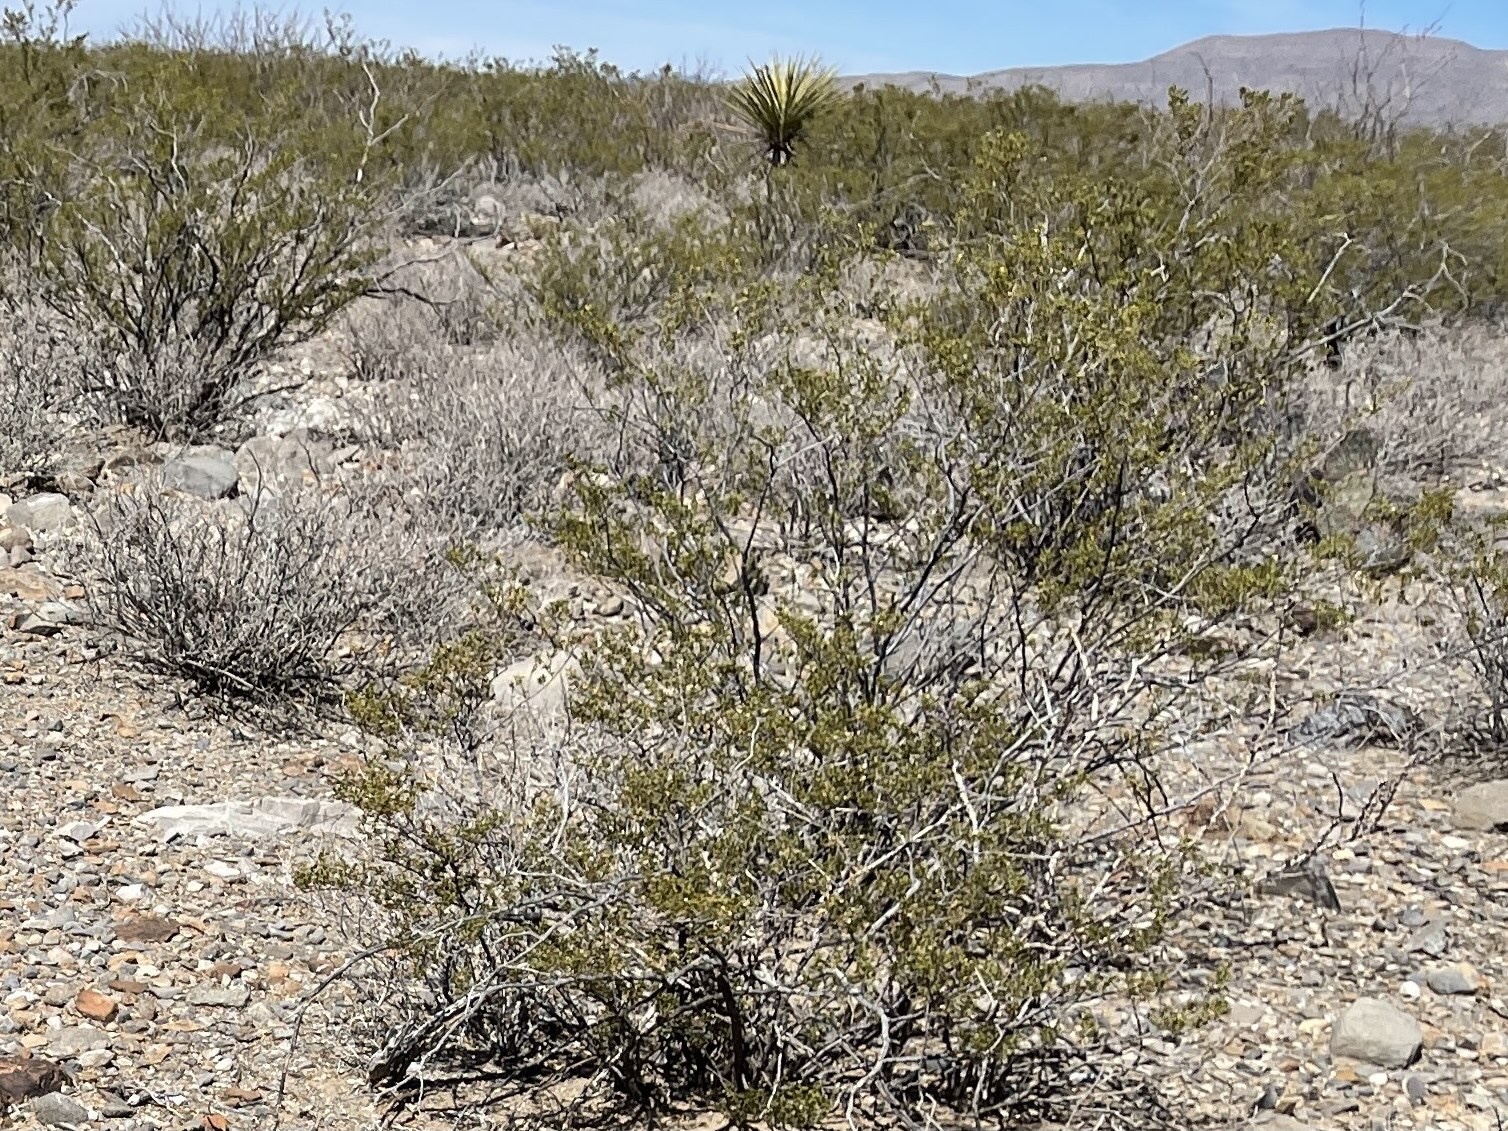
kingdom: Plantae
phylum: Tracheophyta
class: Magnoliopsida
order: Zygophyllales
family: Zygophyllaceae
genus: Larrea
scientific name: Larrea tridentata
